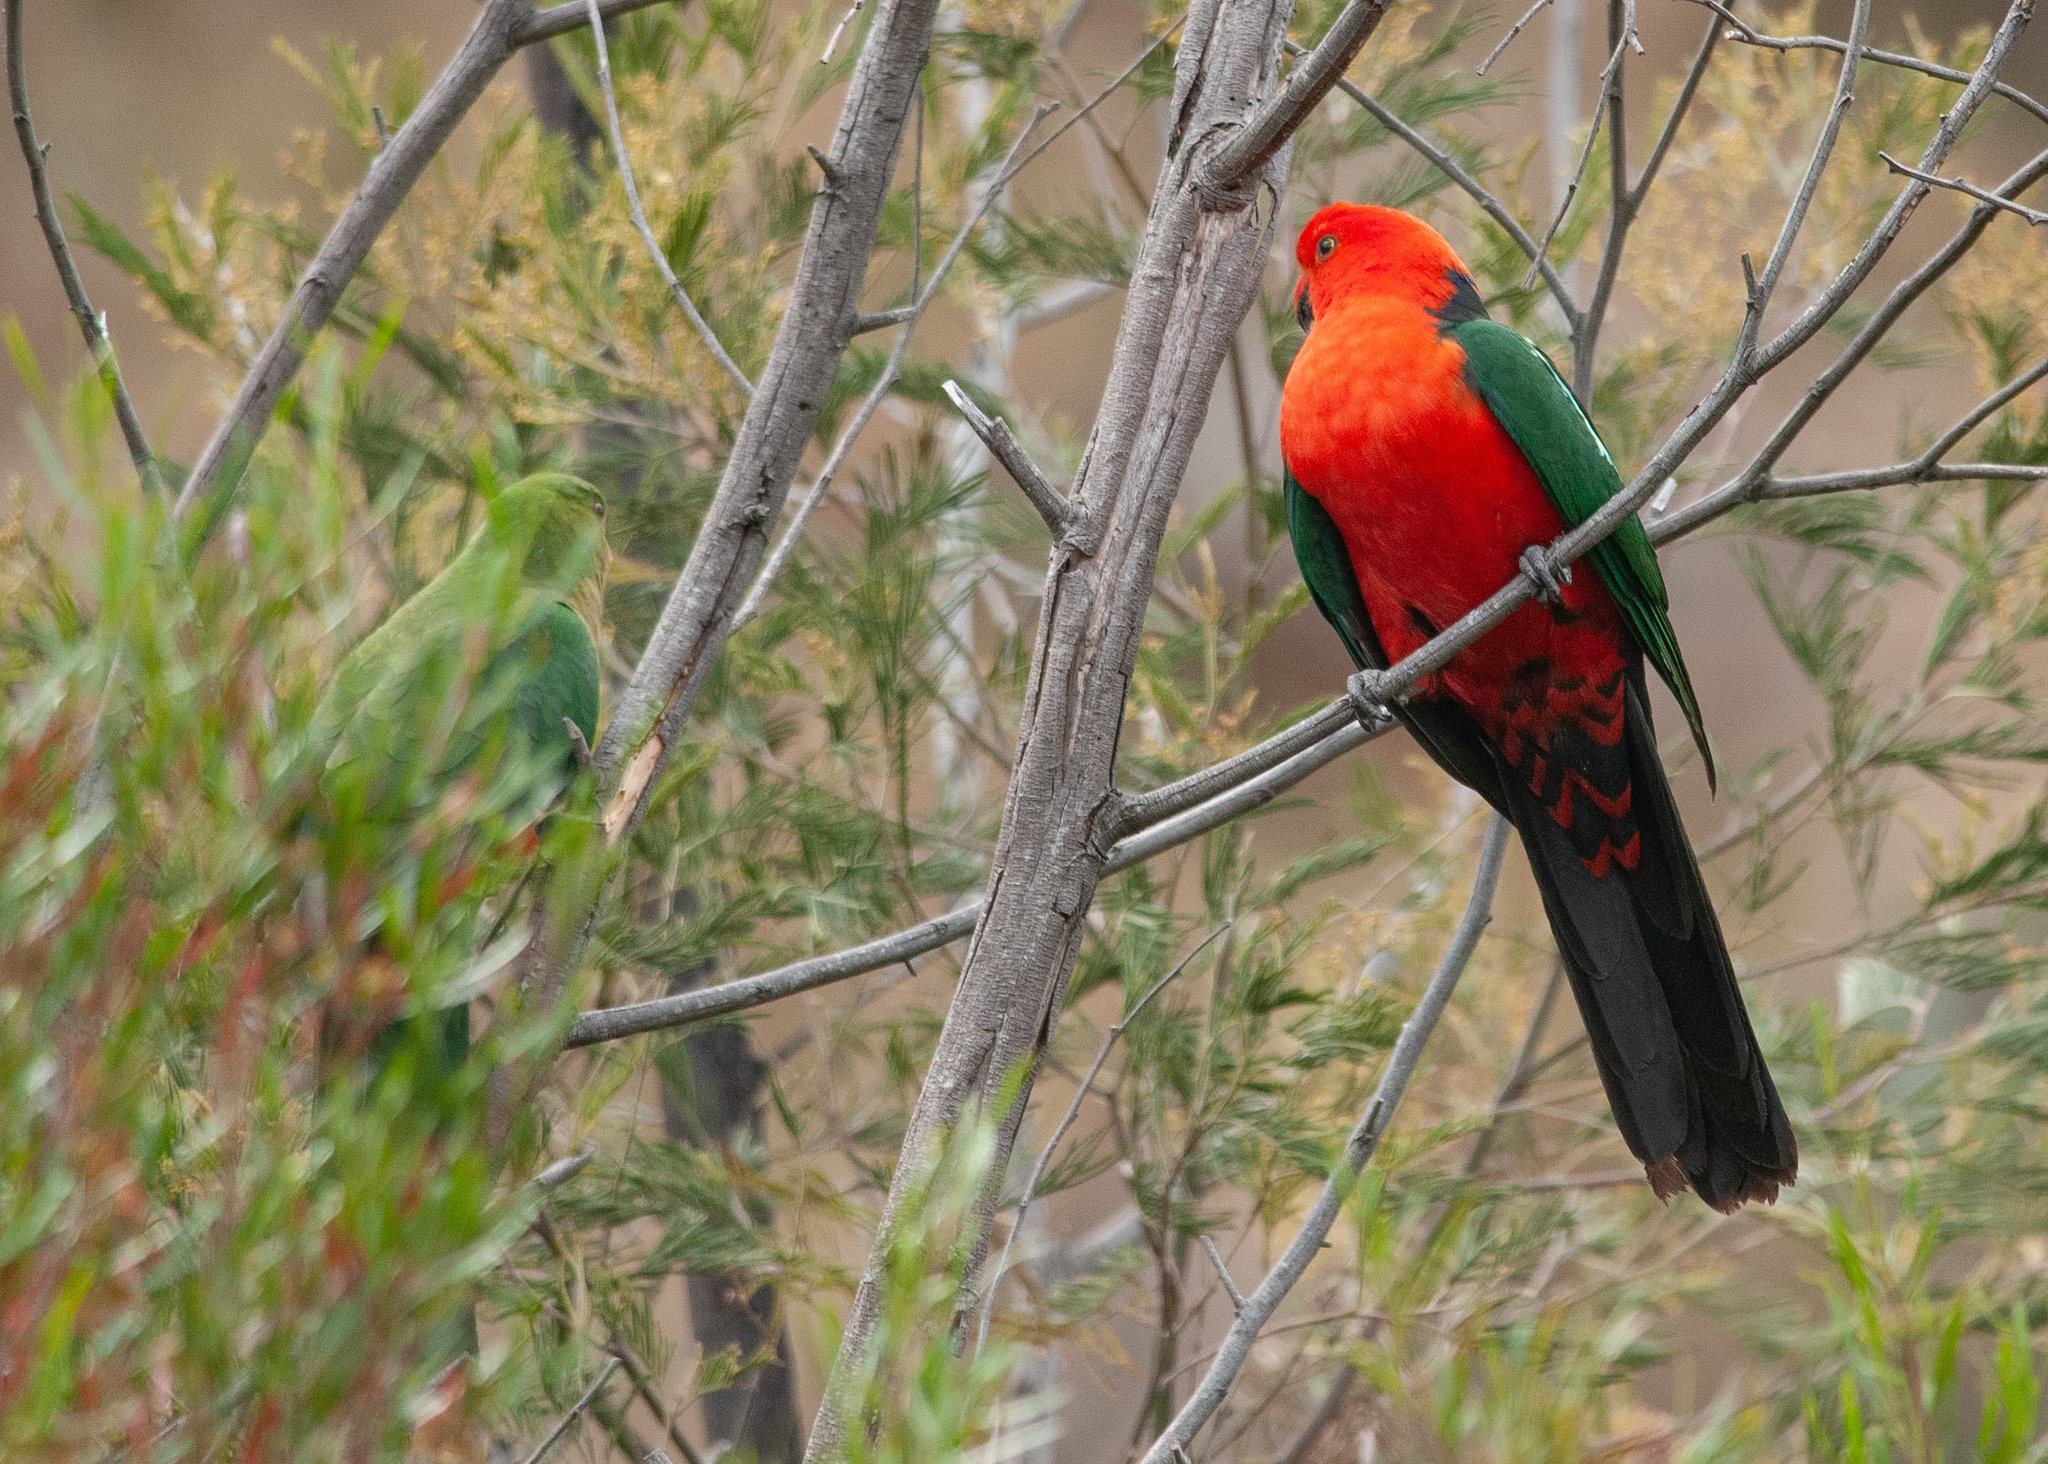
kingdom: Animalia
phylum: Chordata
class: Aves
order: Psittaciformes
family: Psittacidae
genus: Alisterus
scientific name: Alisterus scapularis
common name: Australian king parrot
